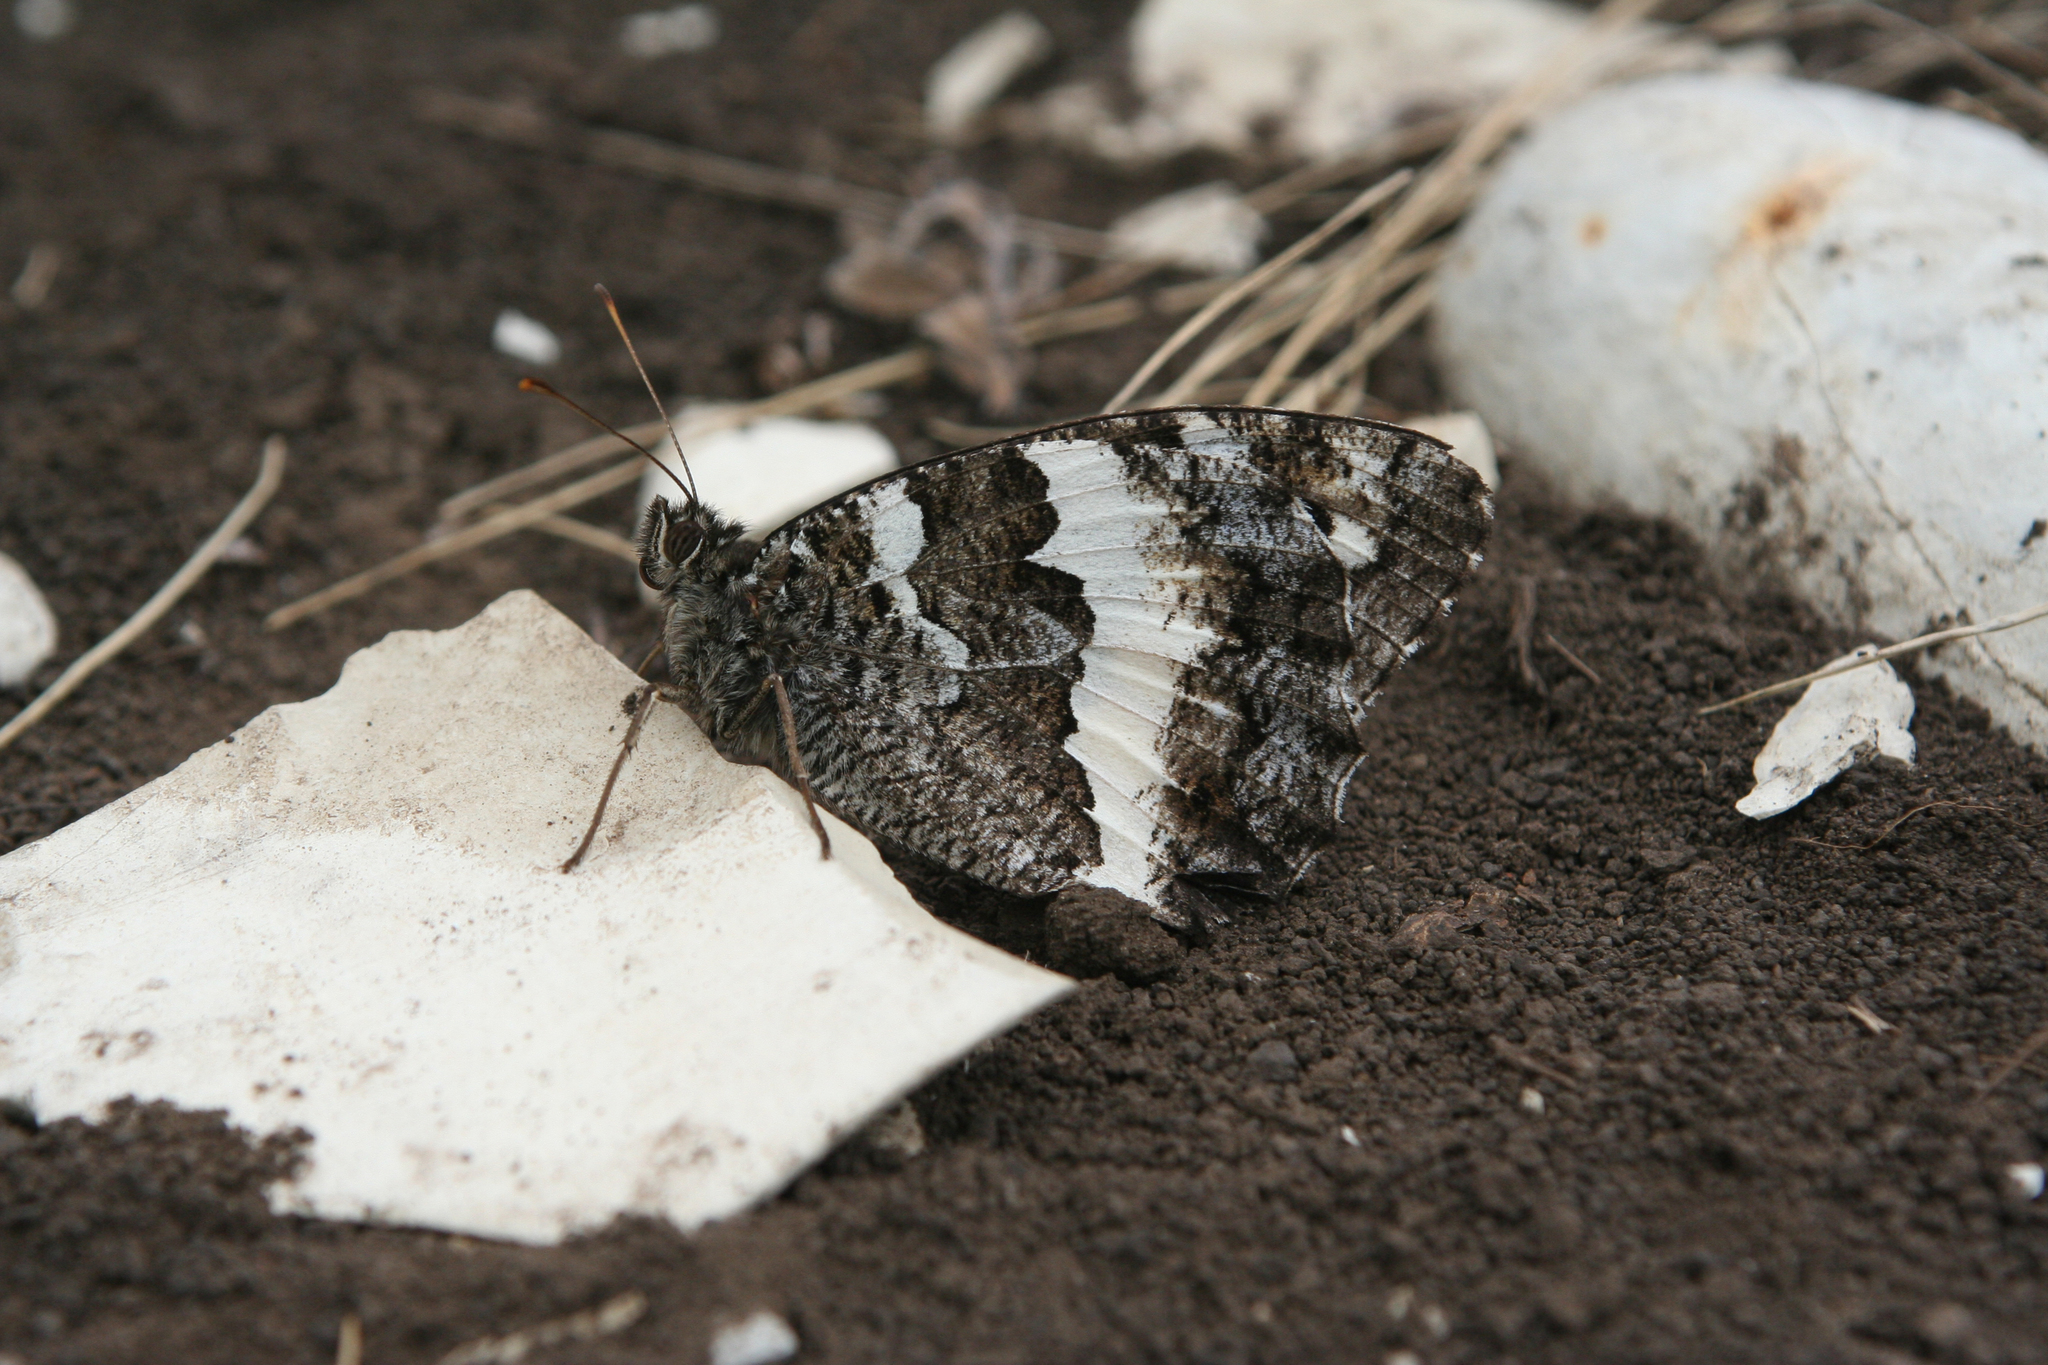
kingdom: Animalia
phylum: Arthropoda
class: Insecta
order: Lepidoptera
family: Lycaenidae
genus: Loweia
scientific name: Loweia tityrus
